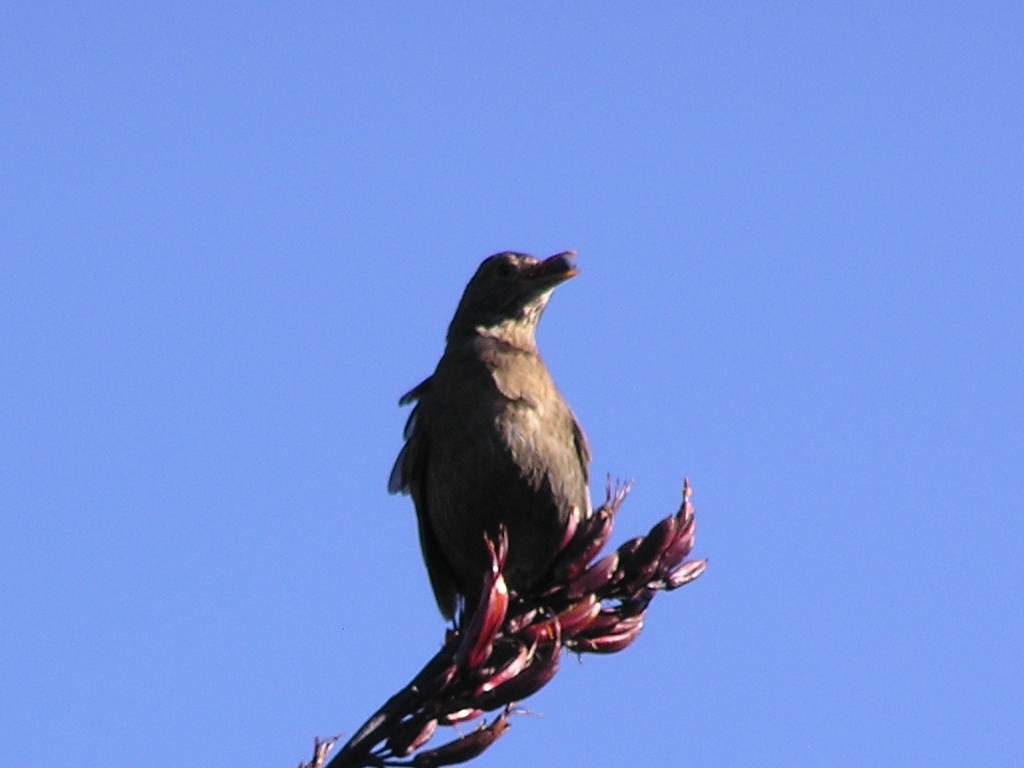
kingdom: Animalia
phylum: Chordata
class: Aves
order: Passeriformes
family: Turdidae
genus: Turdus
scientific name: Turdus merula
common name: Common blackbird
